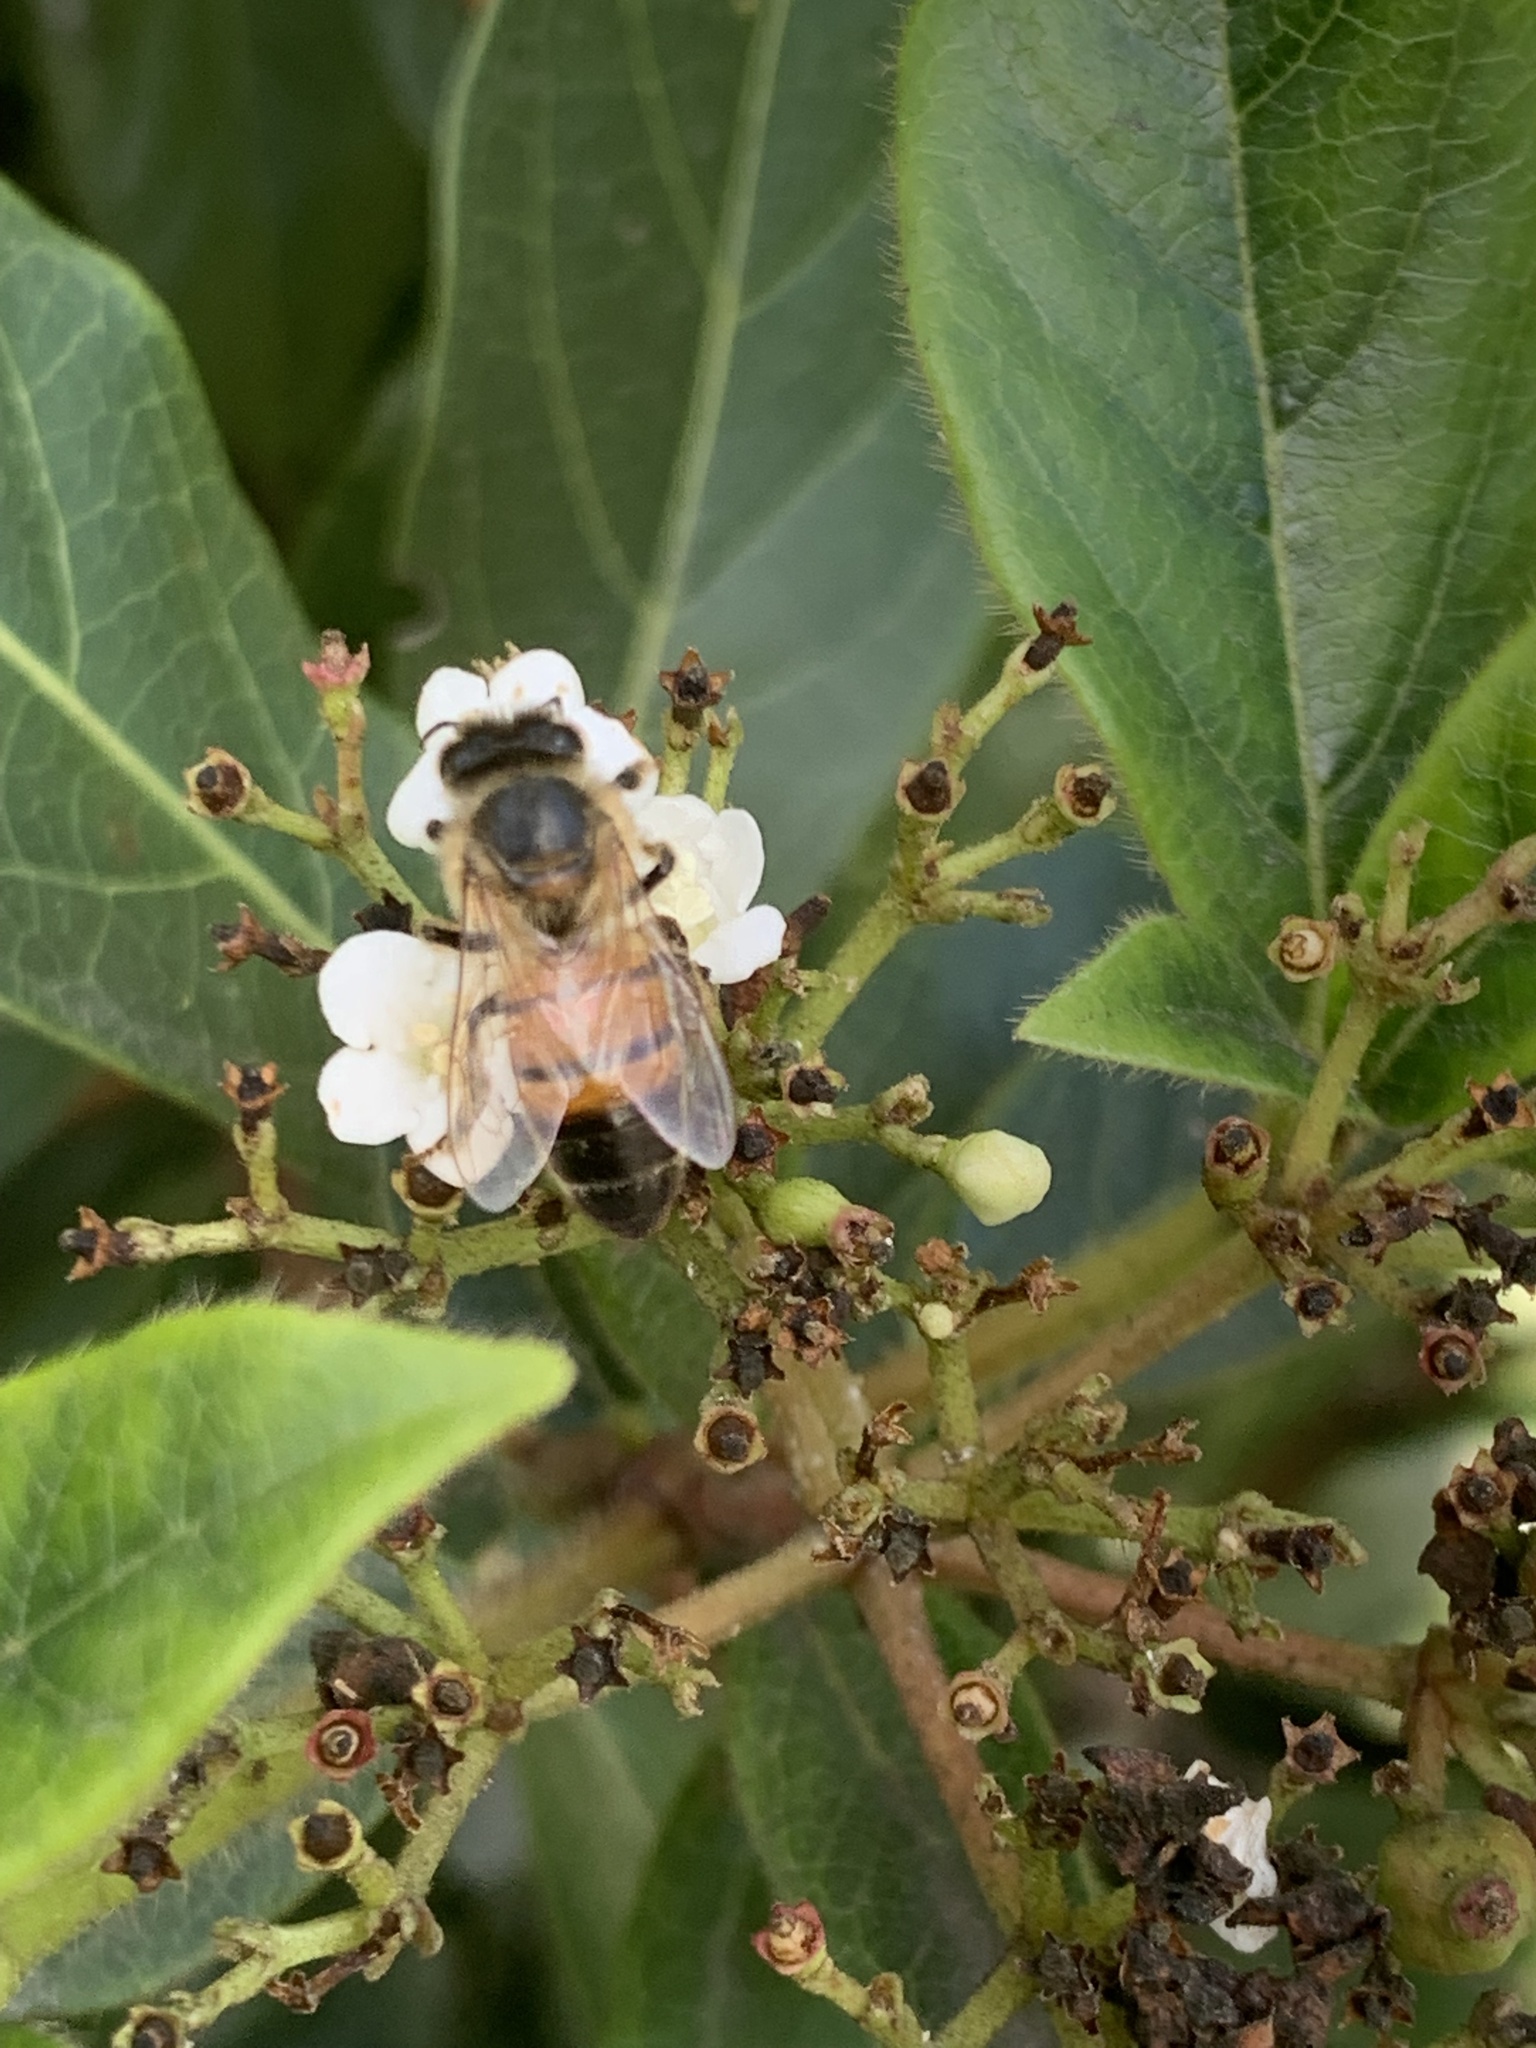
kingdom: Animalia
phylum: Arthropoda
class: Insecta
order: Hymenoptera
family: Apidae
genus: Apis
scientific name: Apis mellifera
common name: Honey bee
